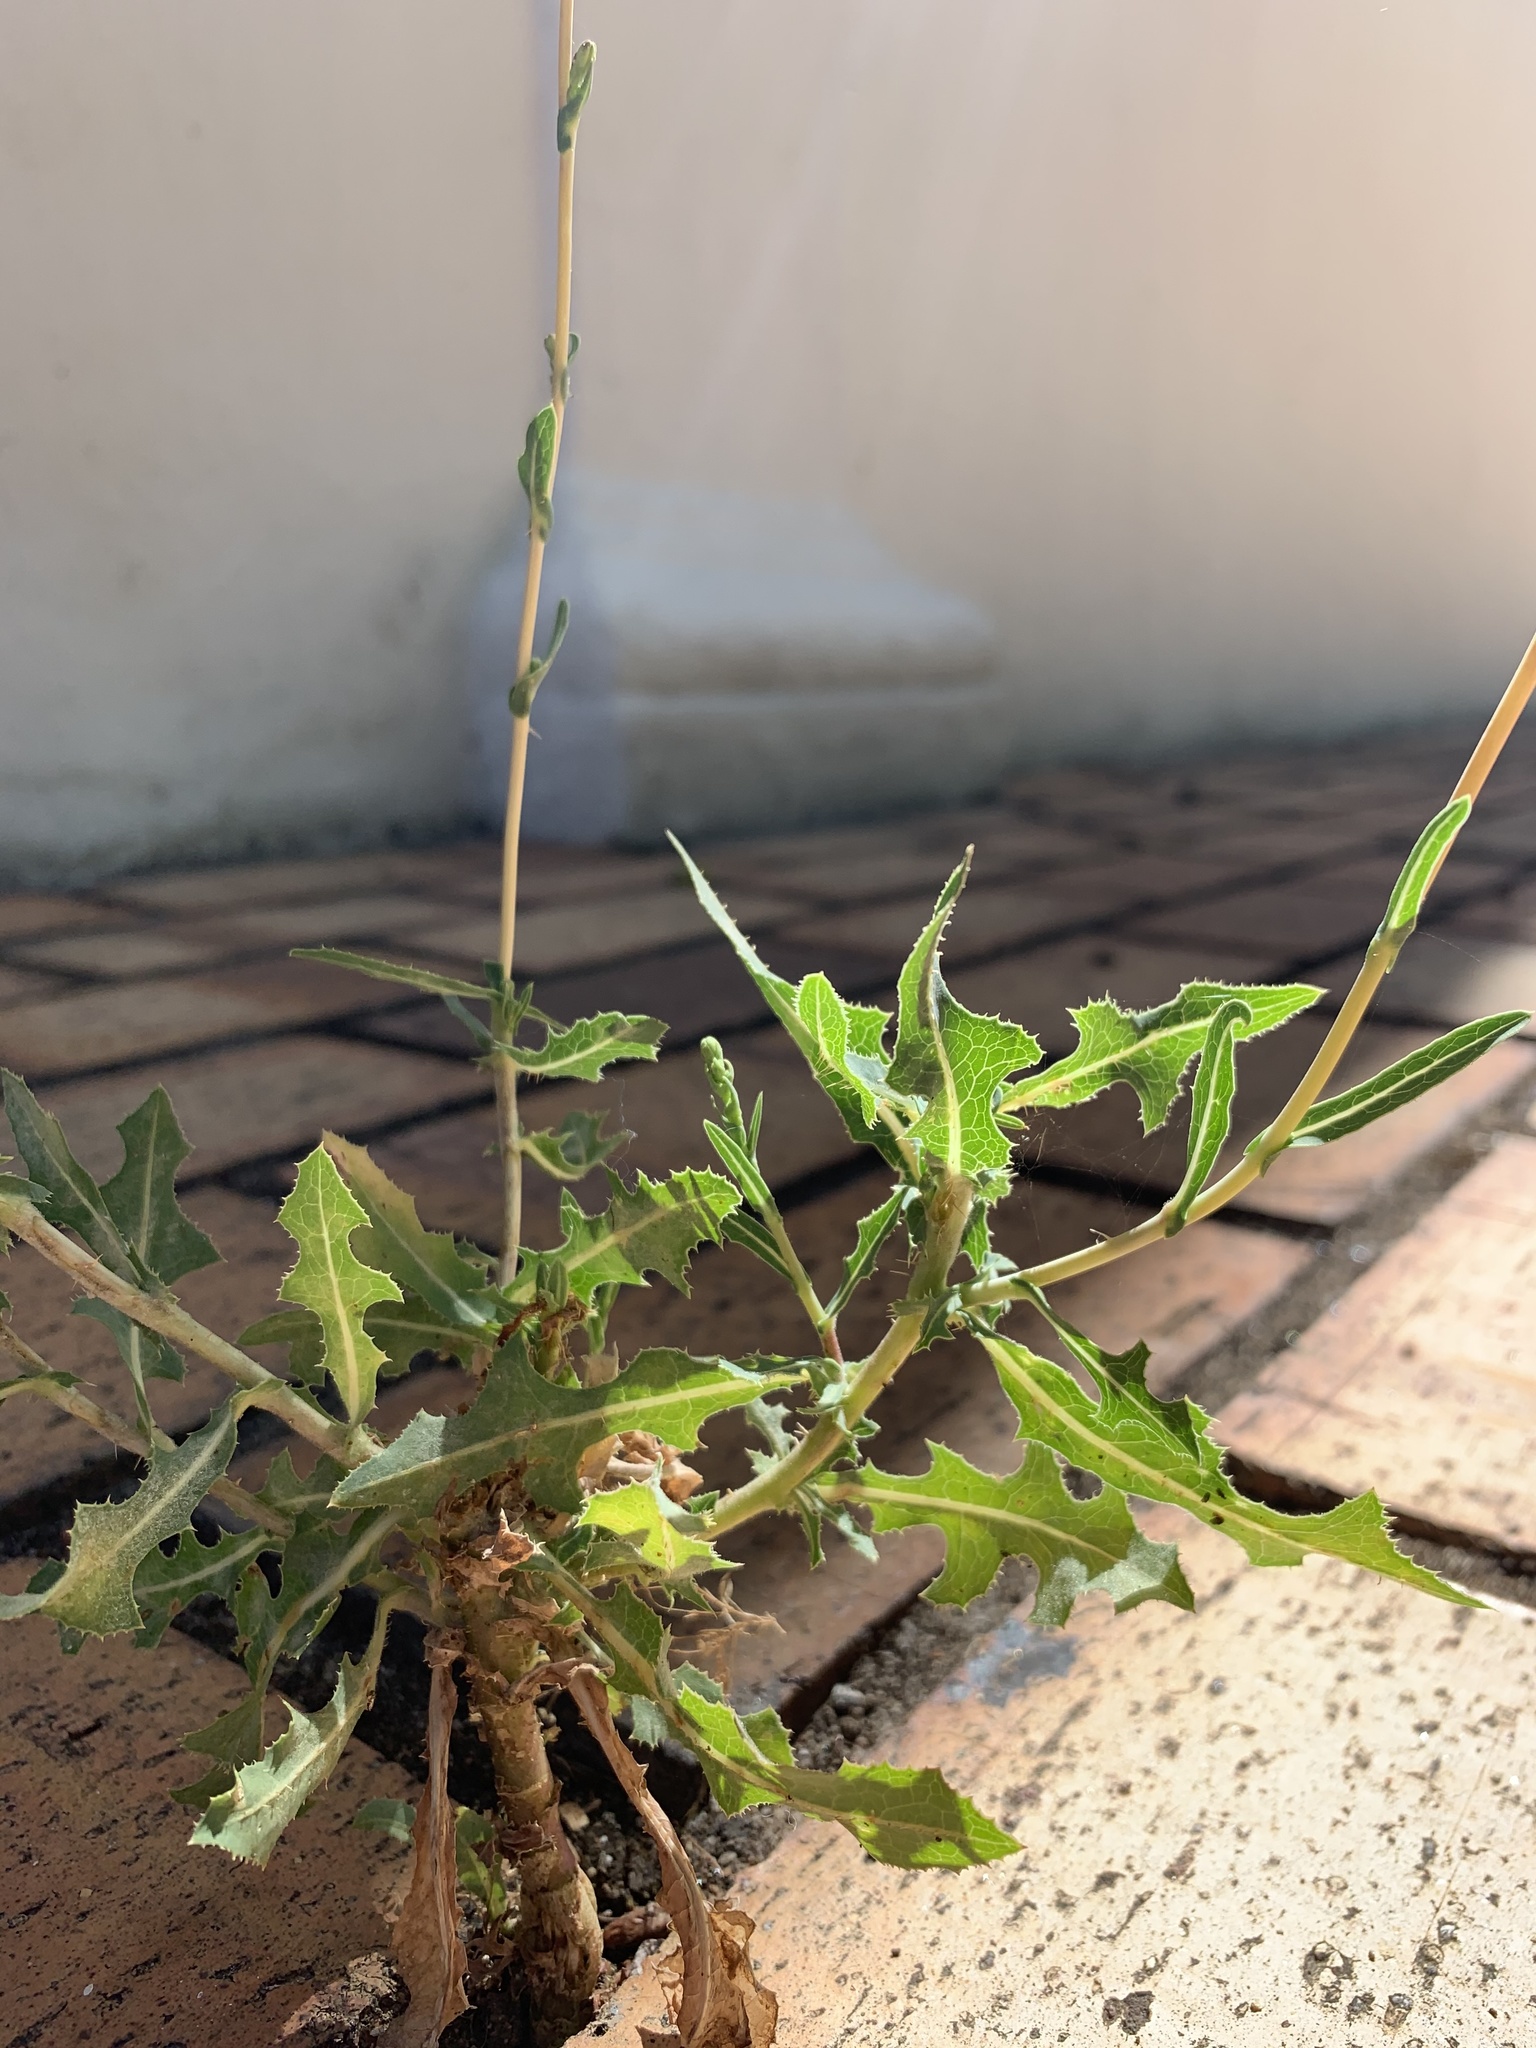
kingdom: Plantae
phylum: Tracheophyta
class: Magnoliopsida
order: Asterales
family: Asteraceae
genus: Lactuca
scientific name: Lactuca serriola
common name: Prickly lettuce
